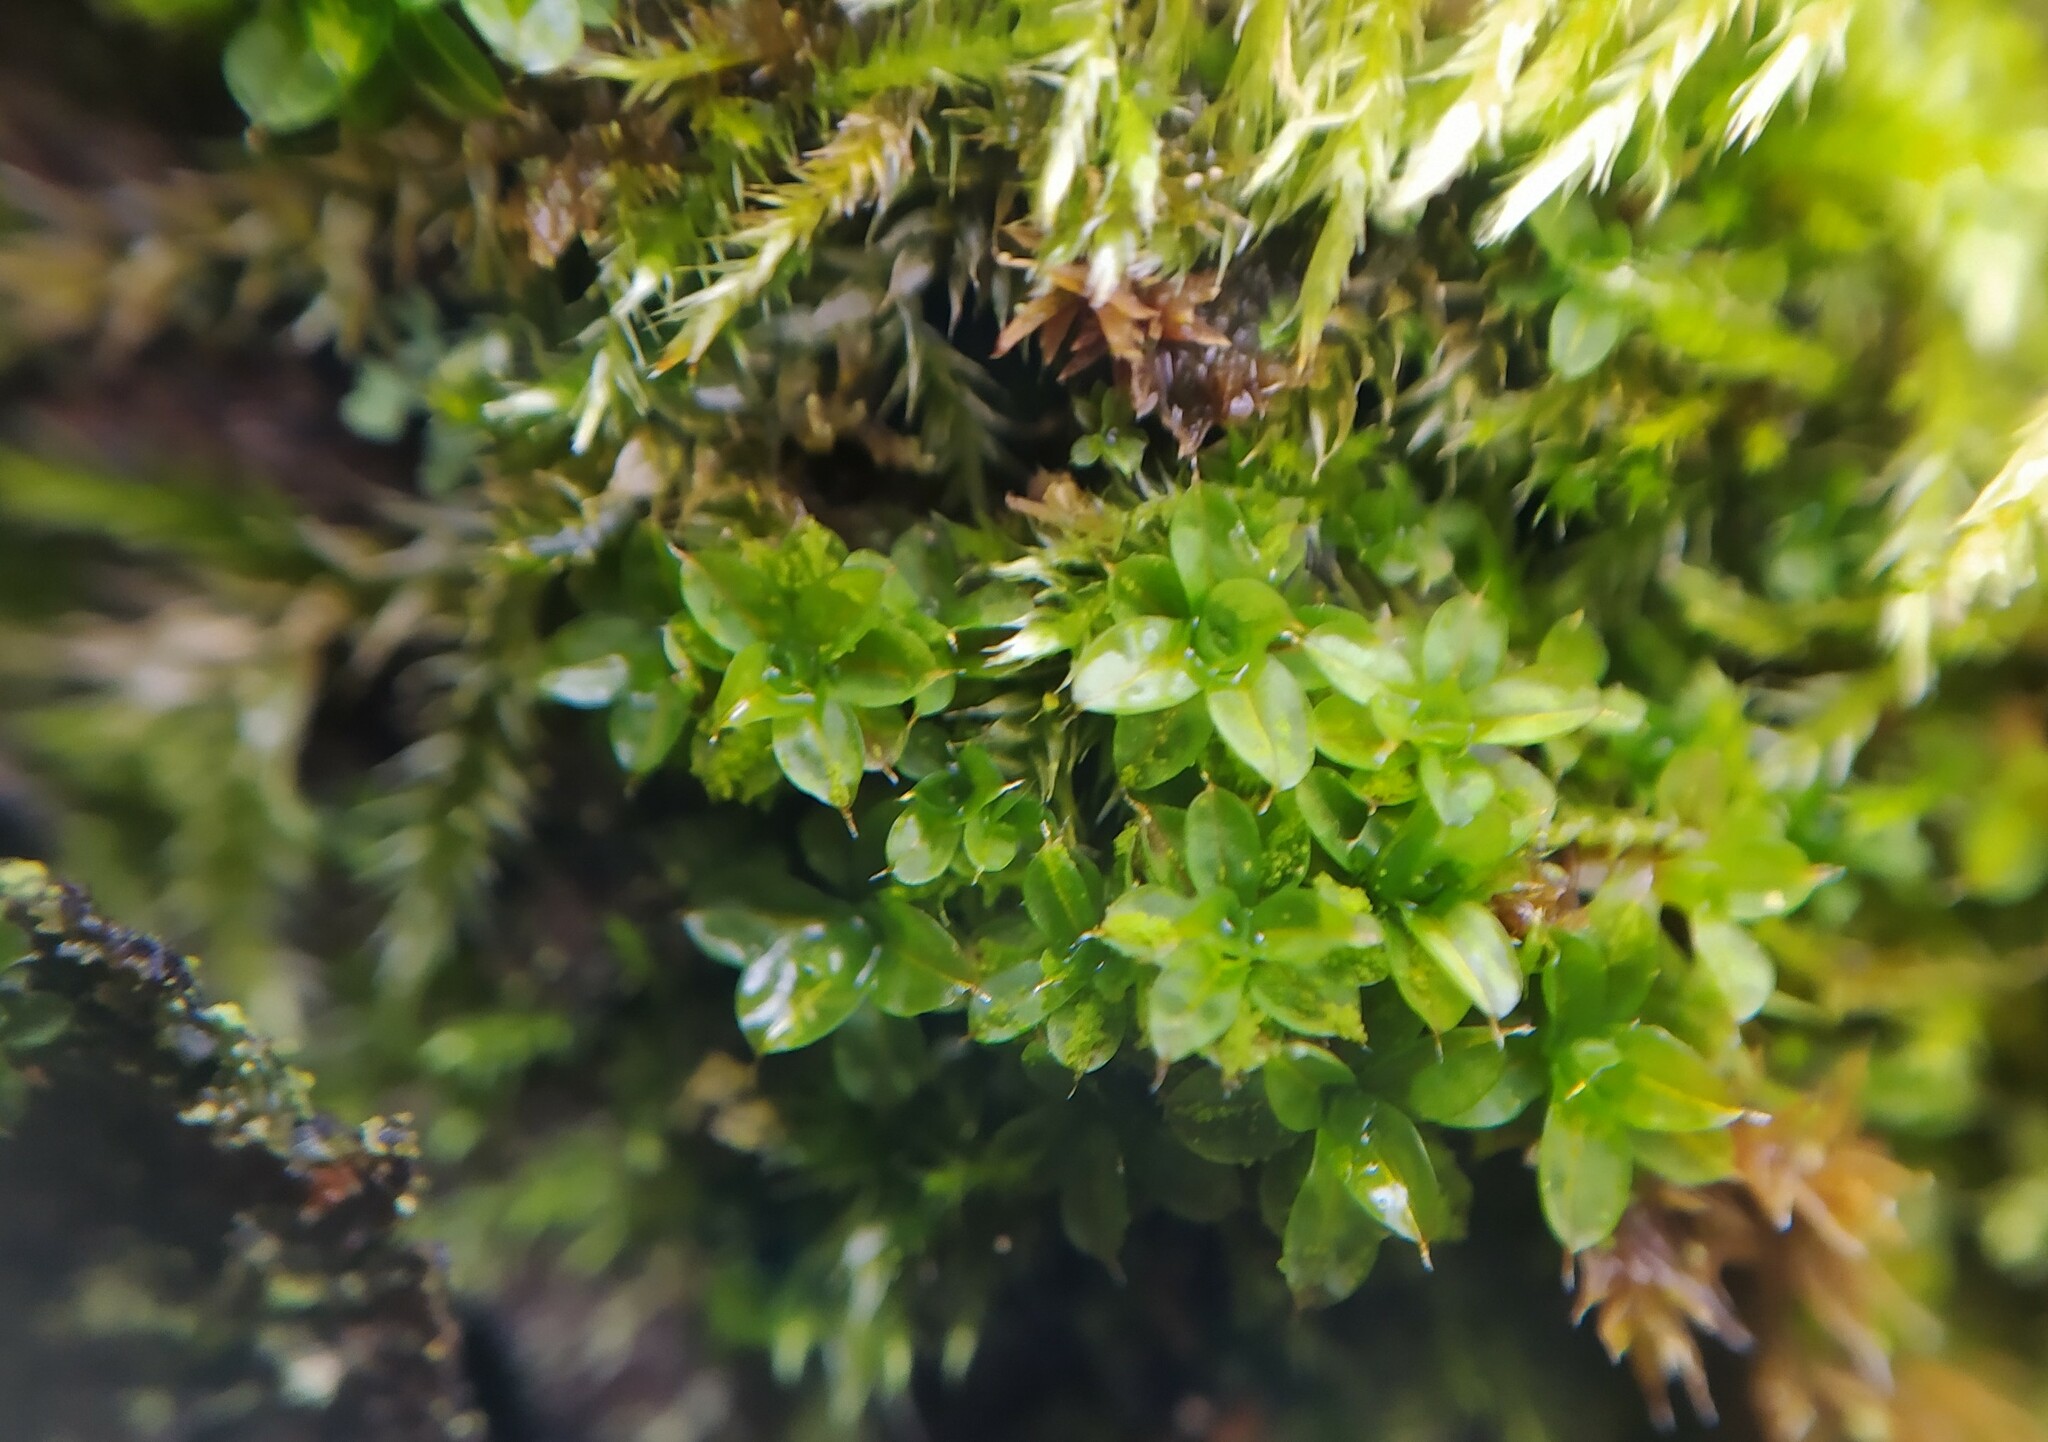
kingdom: Plantae
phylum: Bryophyta
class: Bryopsida
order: Pottiales
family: Pottiaceae
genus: Syntrichia
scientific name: Syntrichia papillosa
